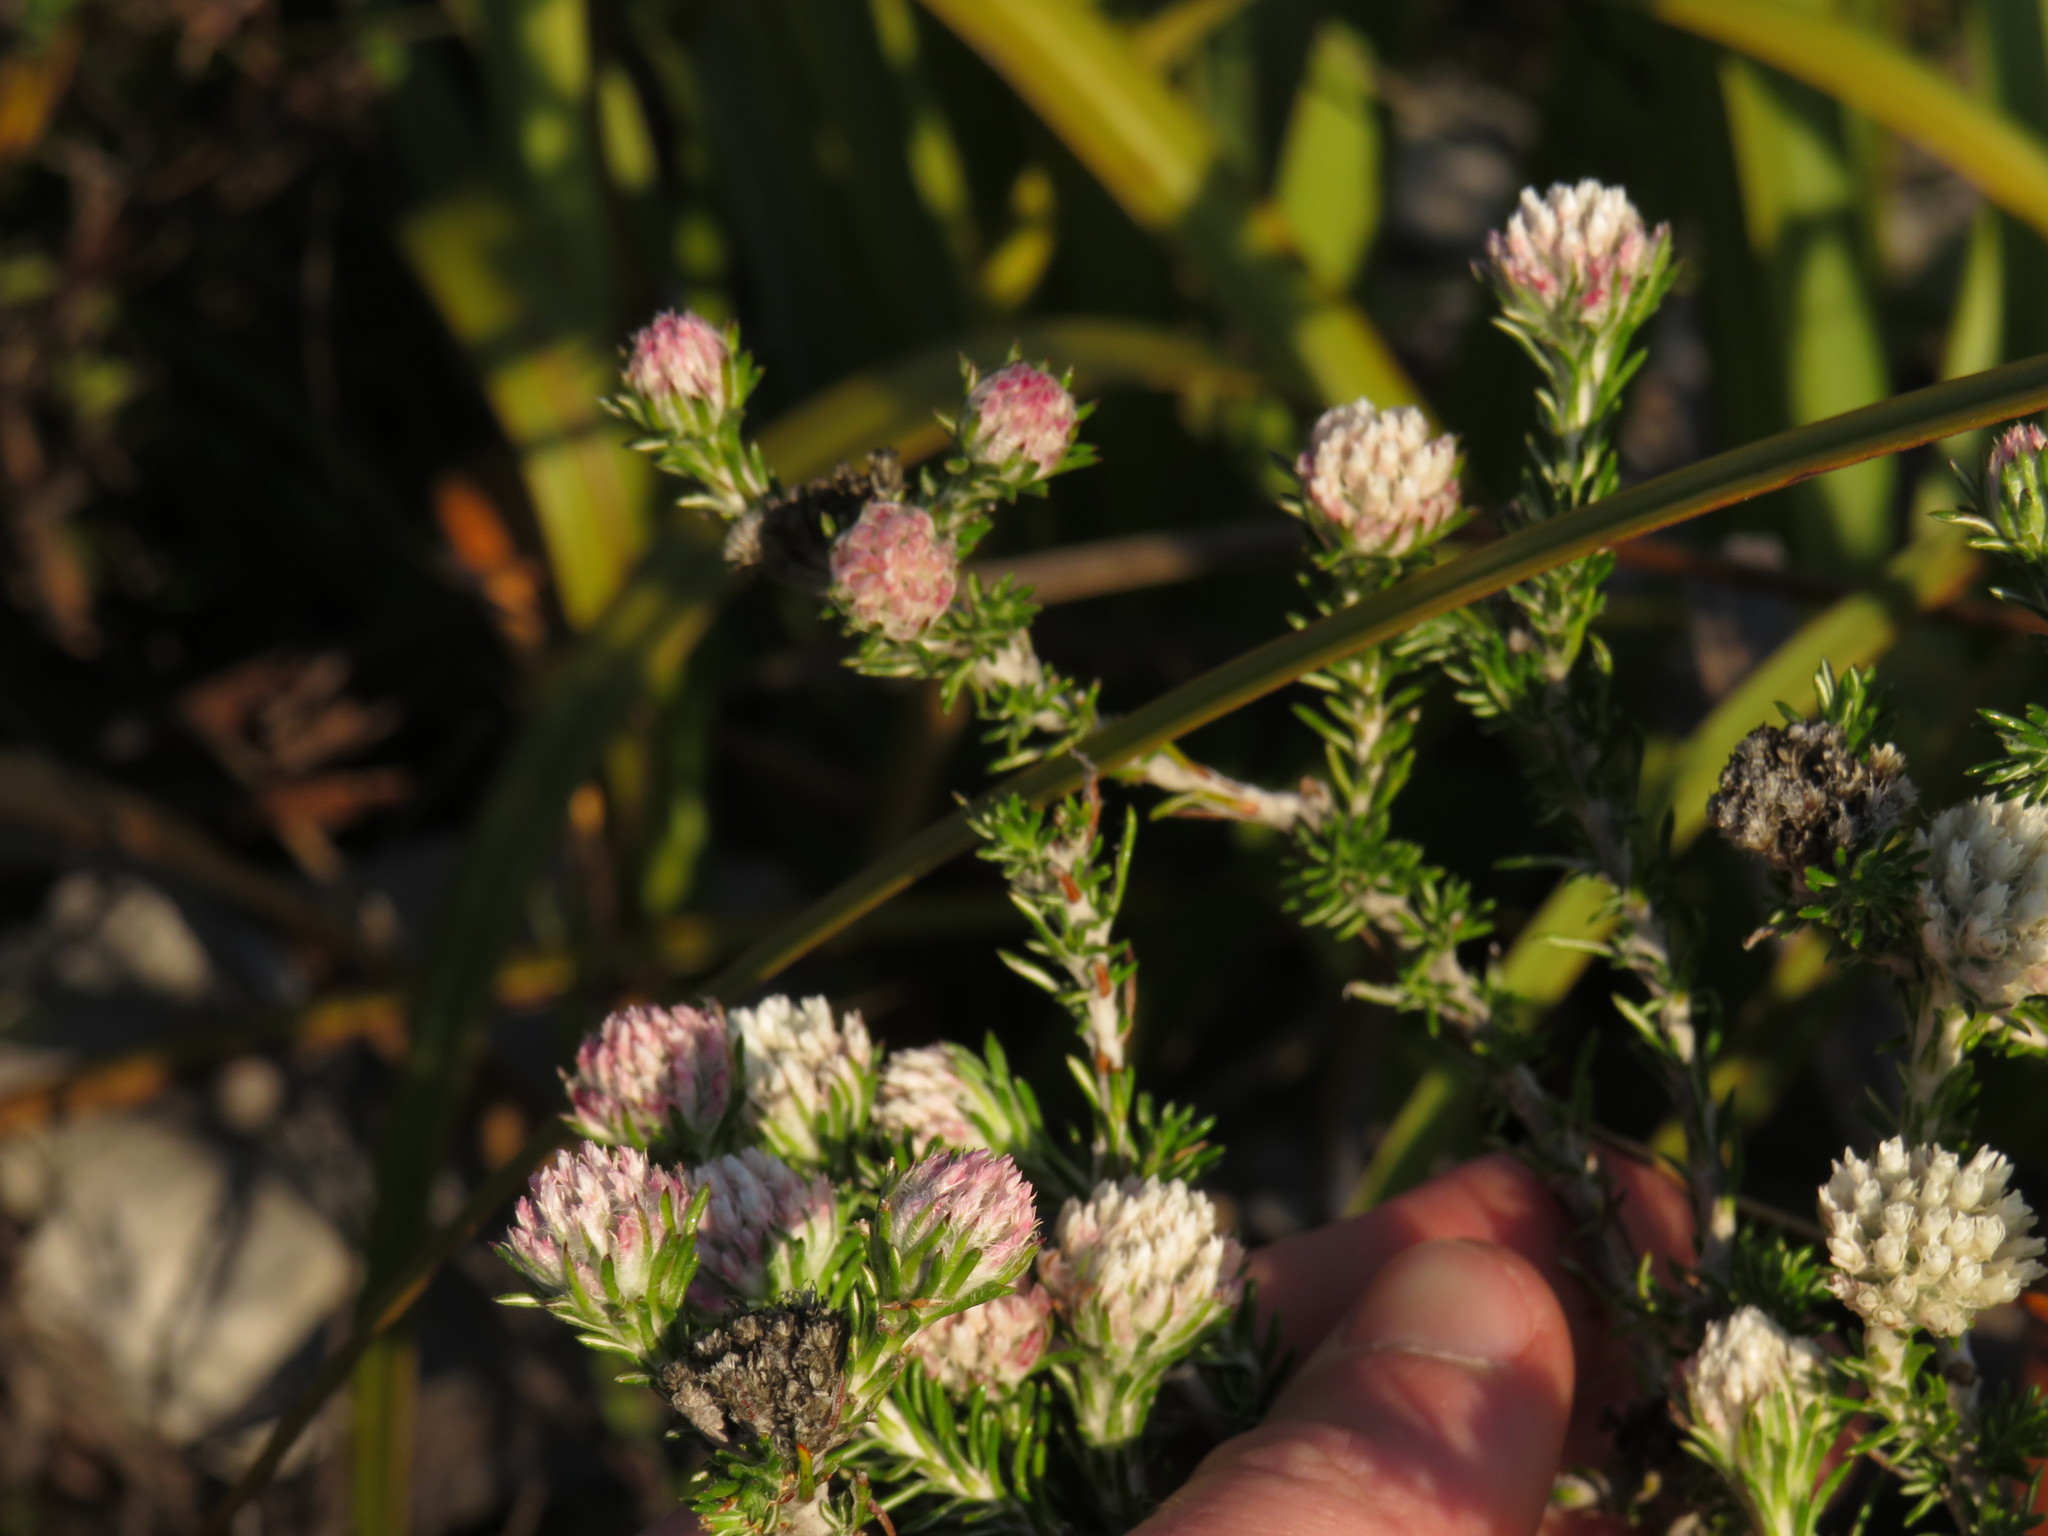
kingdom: Plantae
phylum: Tracheophyta
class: Magnoliopsida
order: Asterales
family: Asteraceae
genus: Metalasia
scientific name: Metalasia compacta
